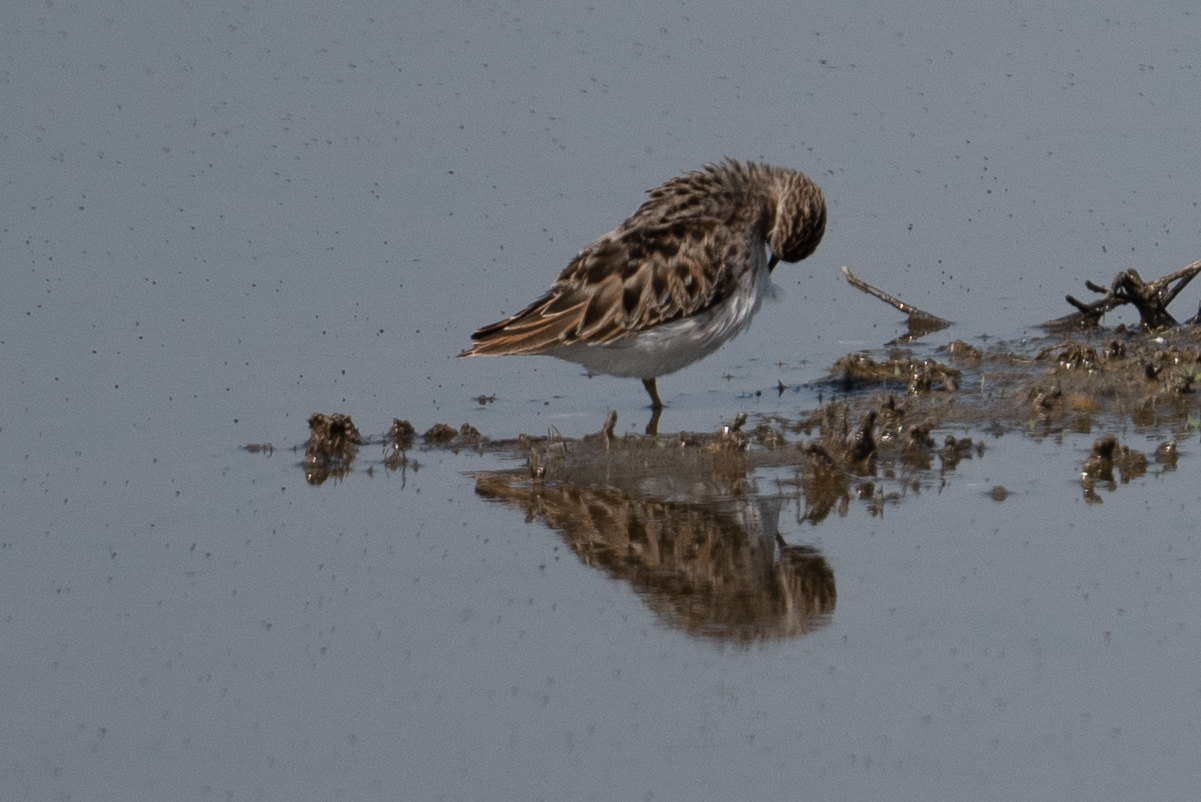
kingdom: Animalia
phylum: Chordata
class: Aves
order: Charadriiformes
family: Scolopacidae
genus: Calidris
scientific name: Calidris minutilla
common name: Least sandpiper
